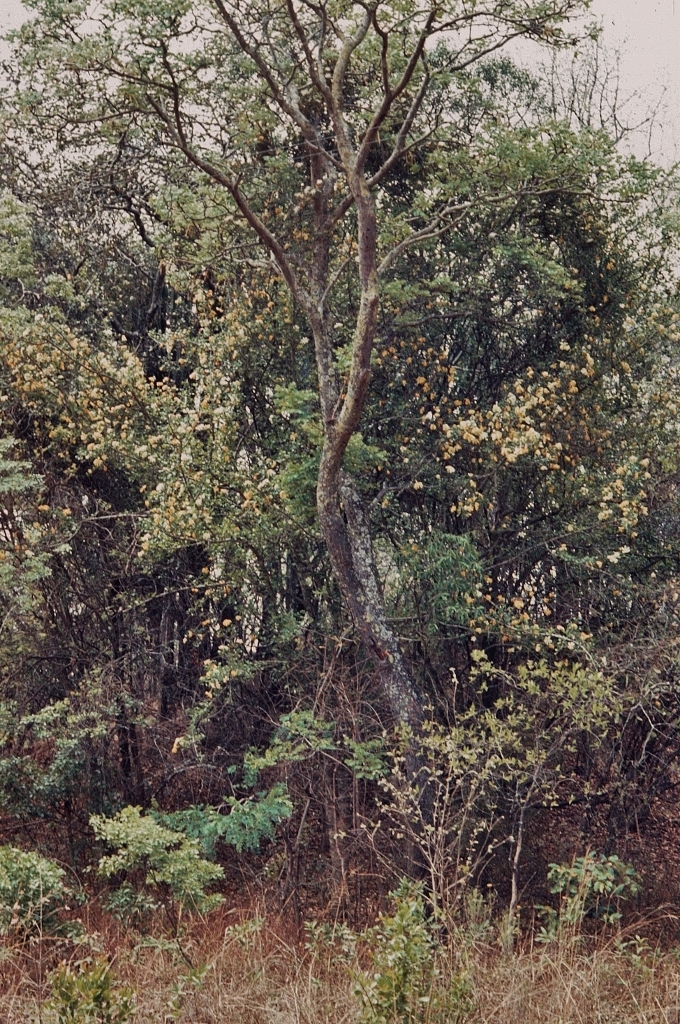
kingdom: Plantae
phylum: Tracheophyta
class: Magnoliopsida
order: Gentianales
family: Rubiaceae
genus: Gardenia
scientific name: Gardenia volkensii
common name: Common gardenia
